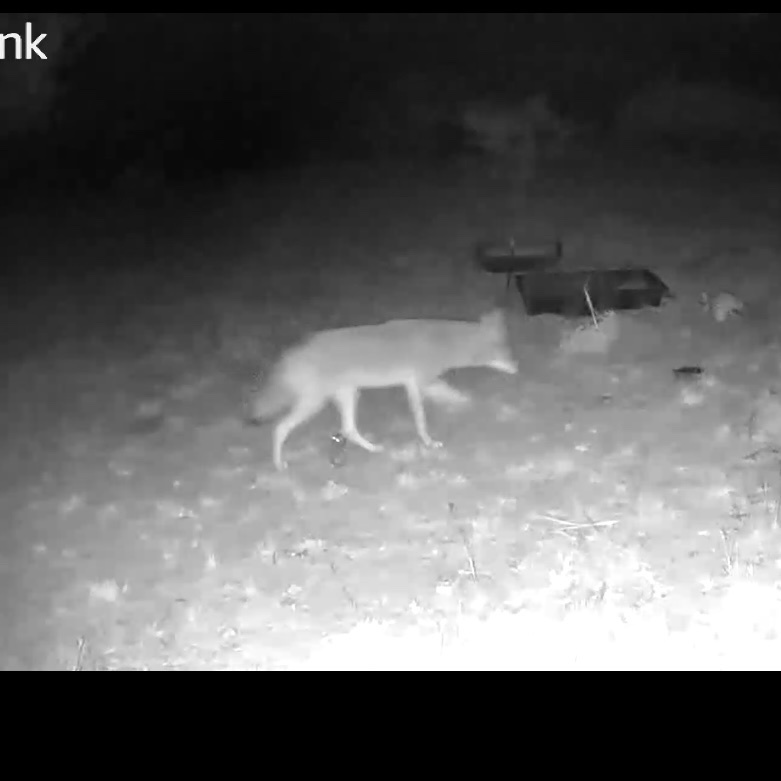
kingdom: Animalia
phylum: Chordata
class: Mammalia
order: Carnivora
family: Canidae
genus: Canis
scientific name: Canis latrans
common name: Coyote
